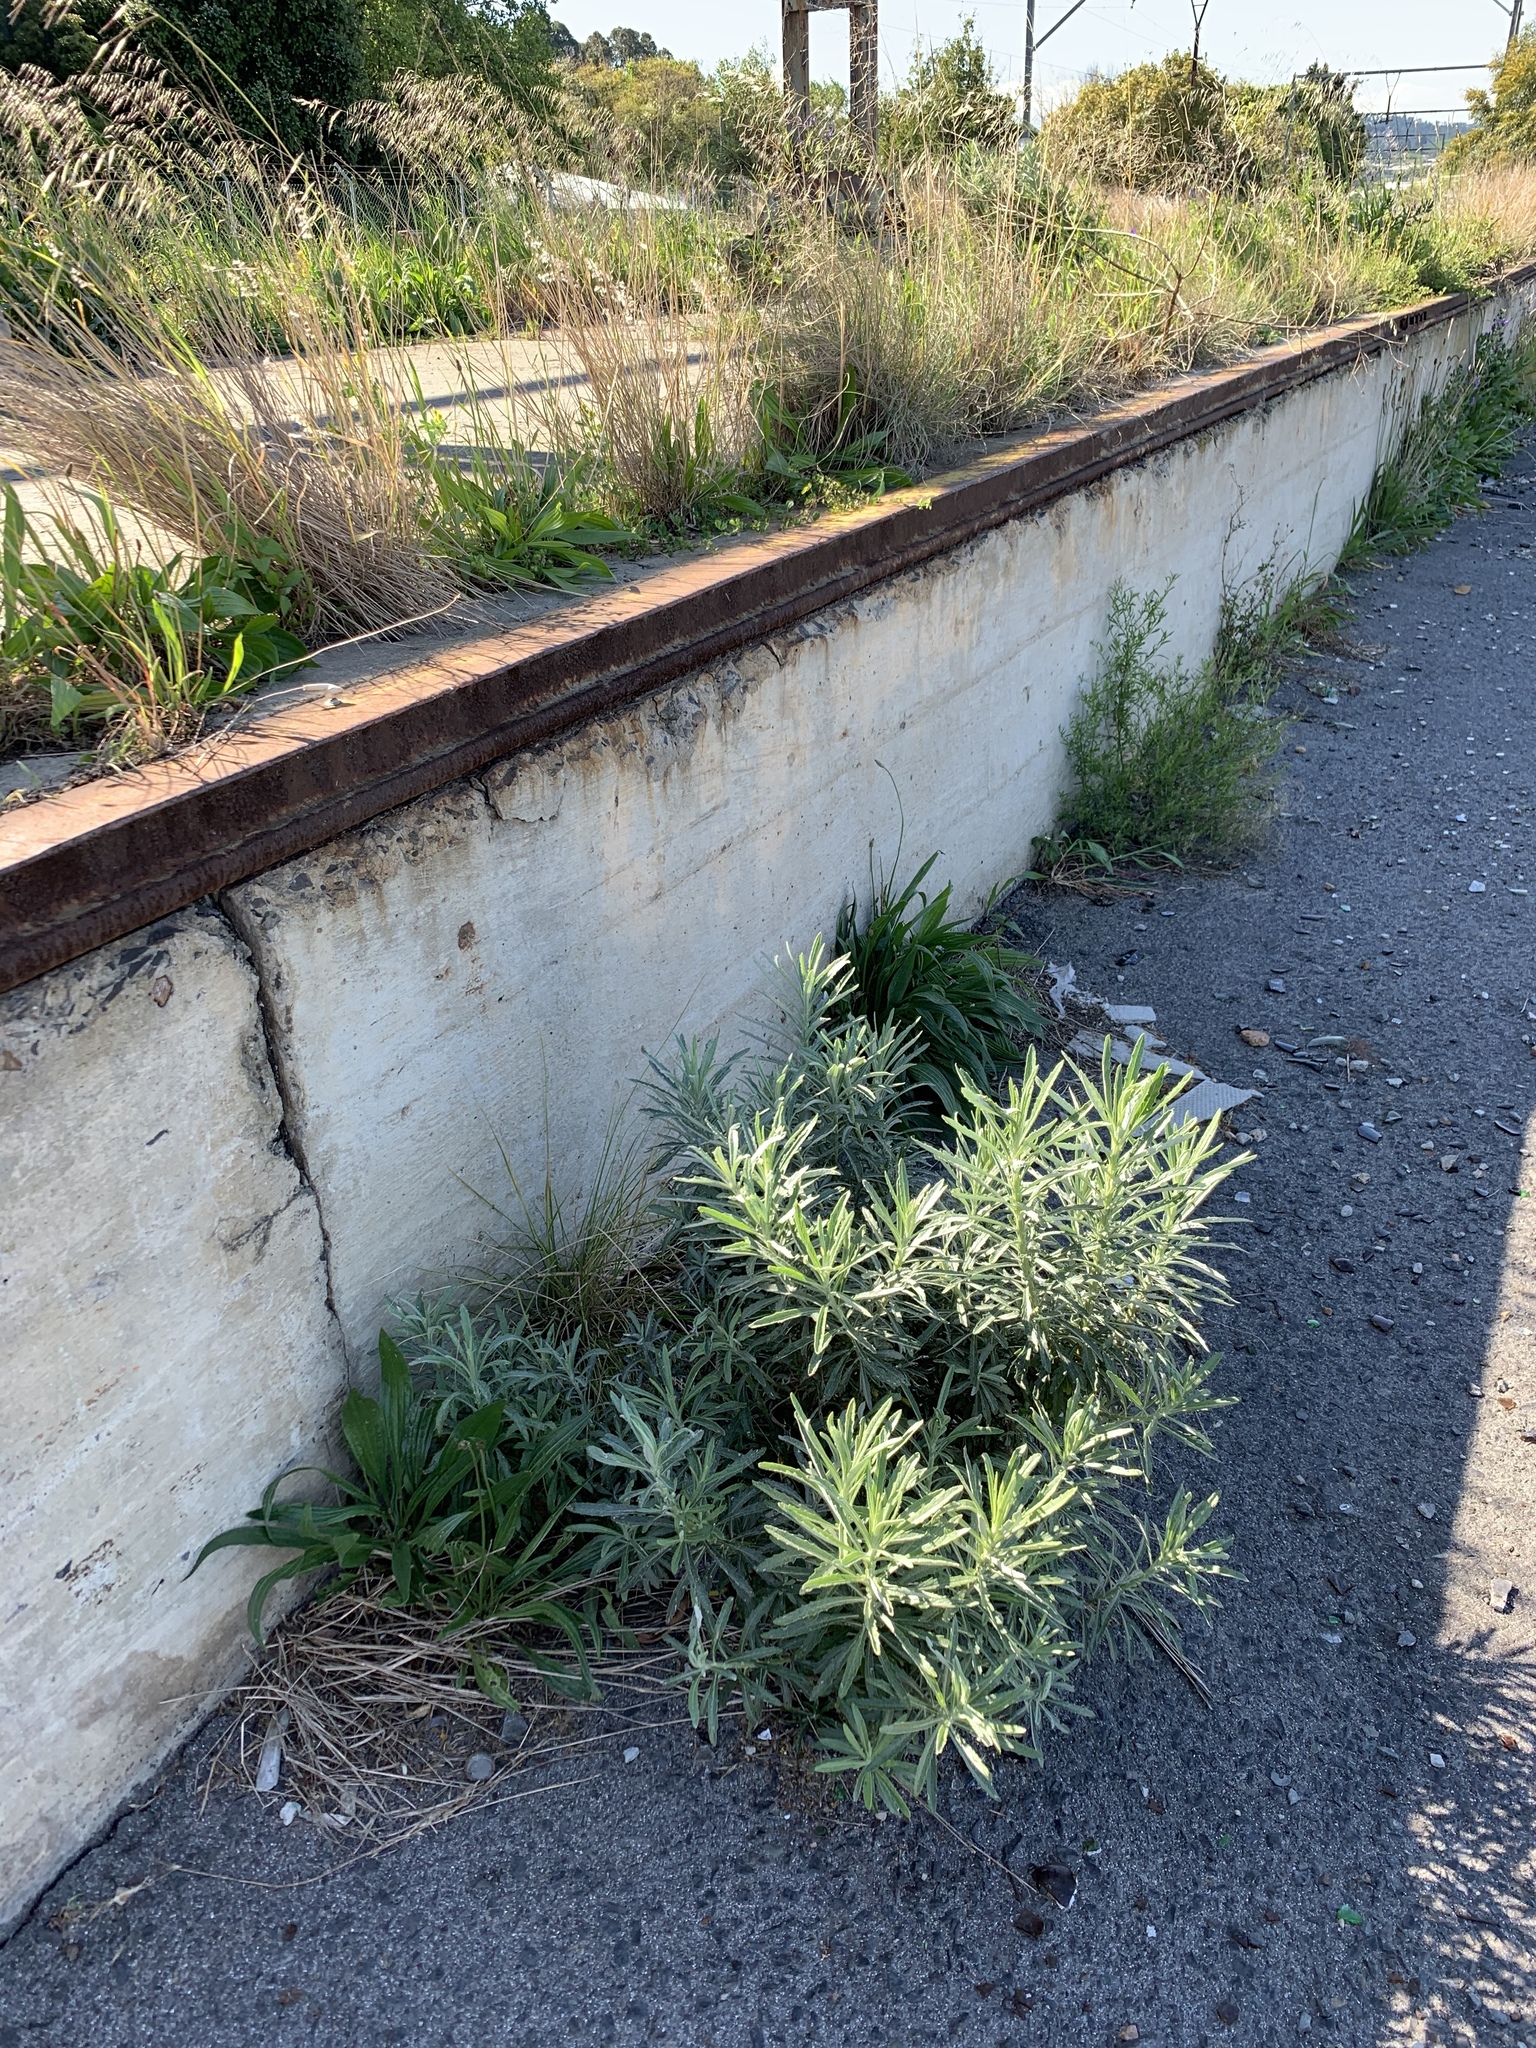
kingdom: Plantae
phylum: Tracheophyta
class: Magnoliopsida
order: Asterales
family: Asteraceae
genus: Senecio
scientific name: Senecio pterophorus
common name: Shoddy ragwort
